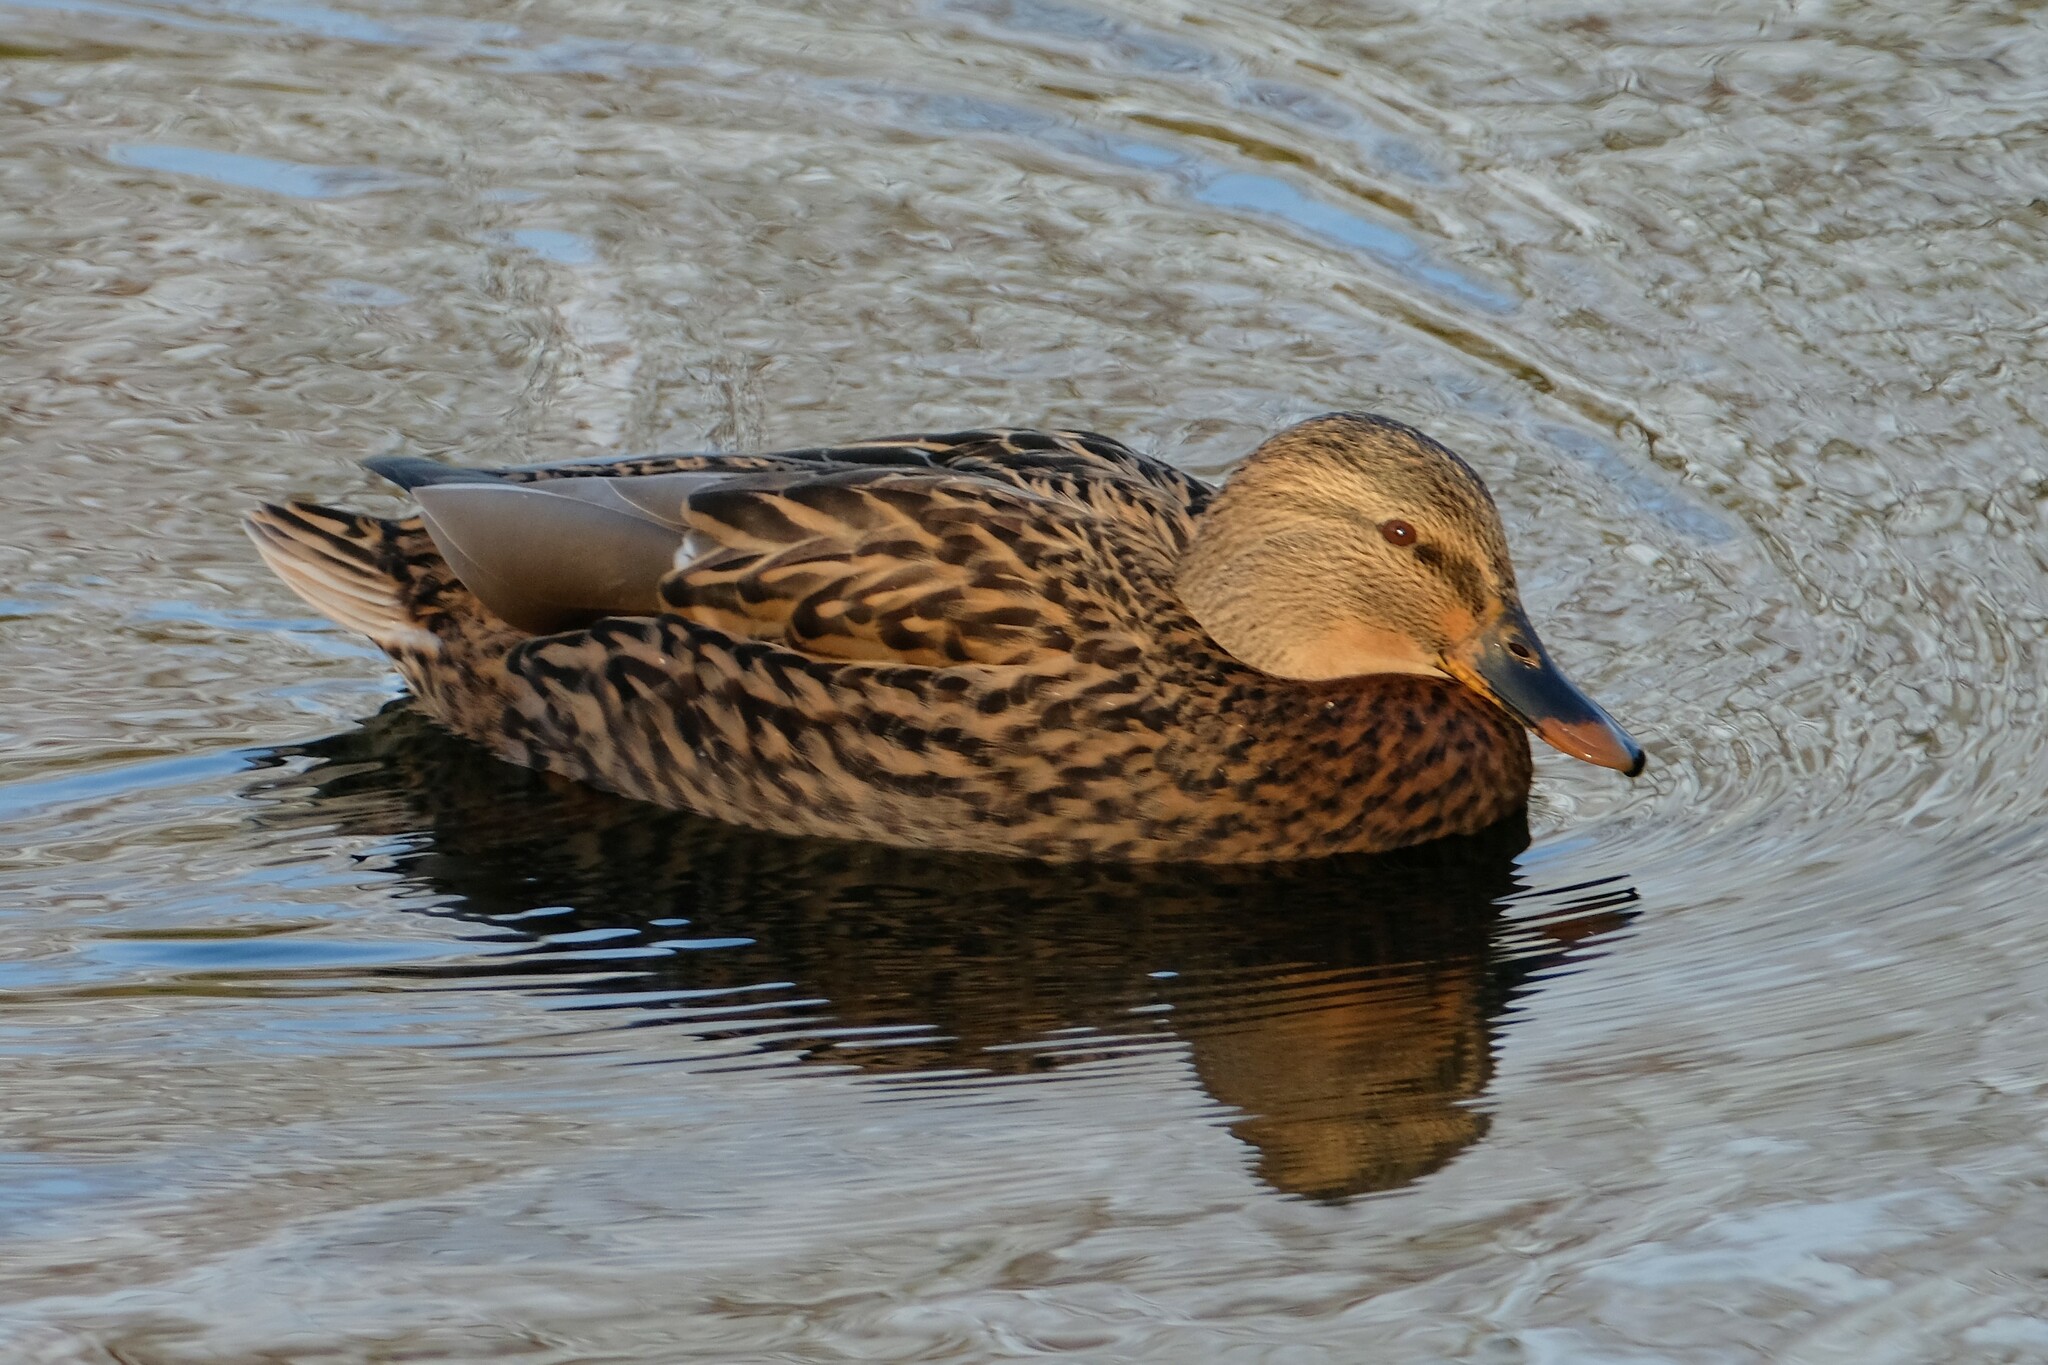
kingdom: Animalia
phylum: Chordata
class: Aves
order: Anseriformes
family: Anatidae
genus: Anas
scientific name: Anas platyrhynchos
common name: Mallard
